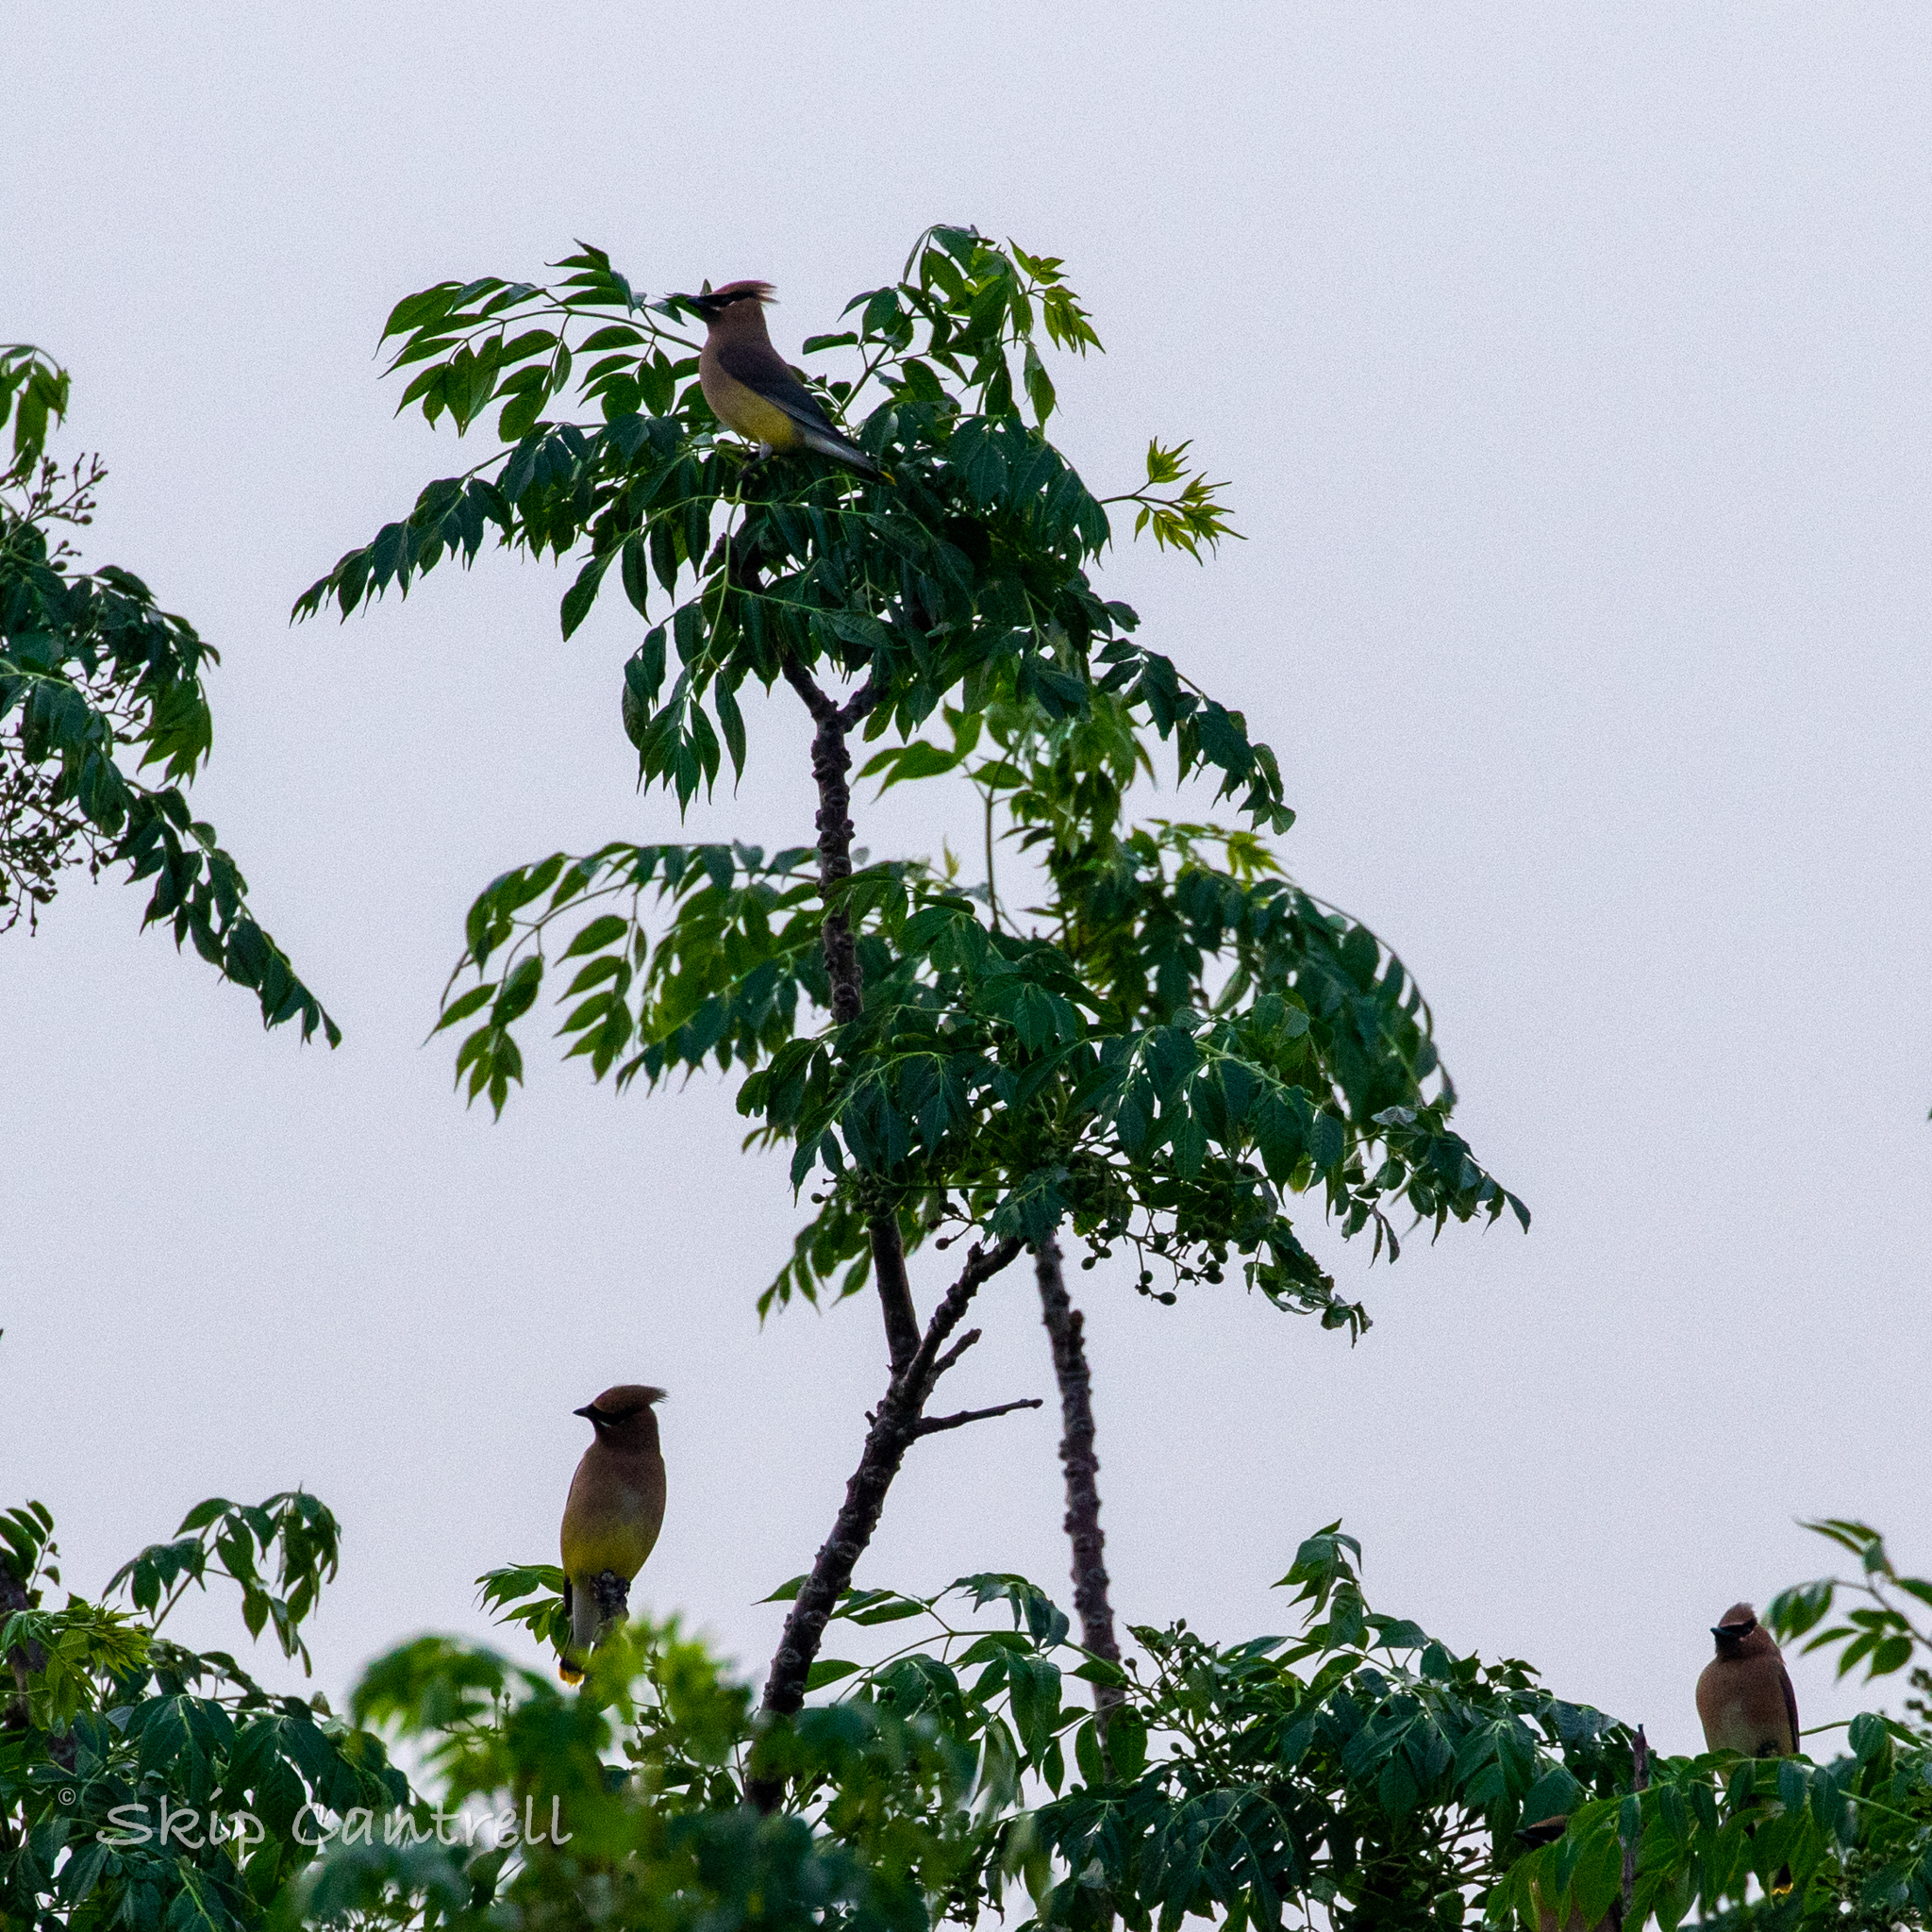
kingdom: Animalia
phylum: Chordata
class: Aves
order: Passeriformes
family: Bombycillidae
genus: Bombycilla
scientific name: Bombycilla cedrorum
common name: Cedar waxwing
